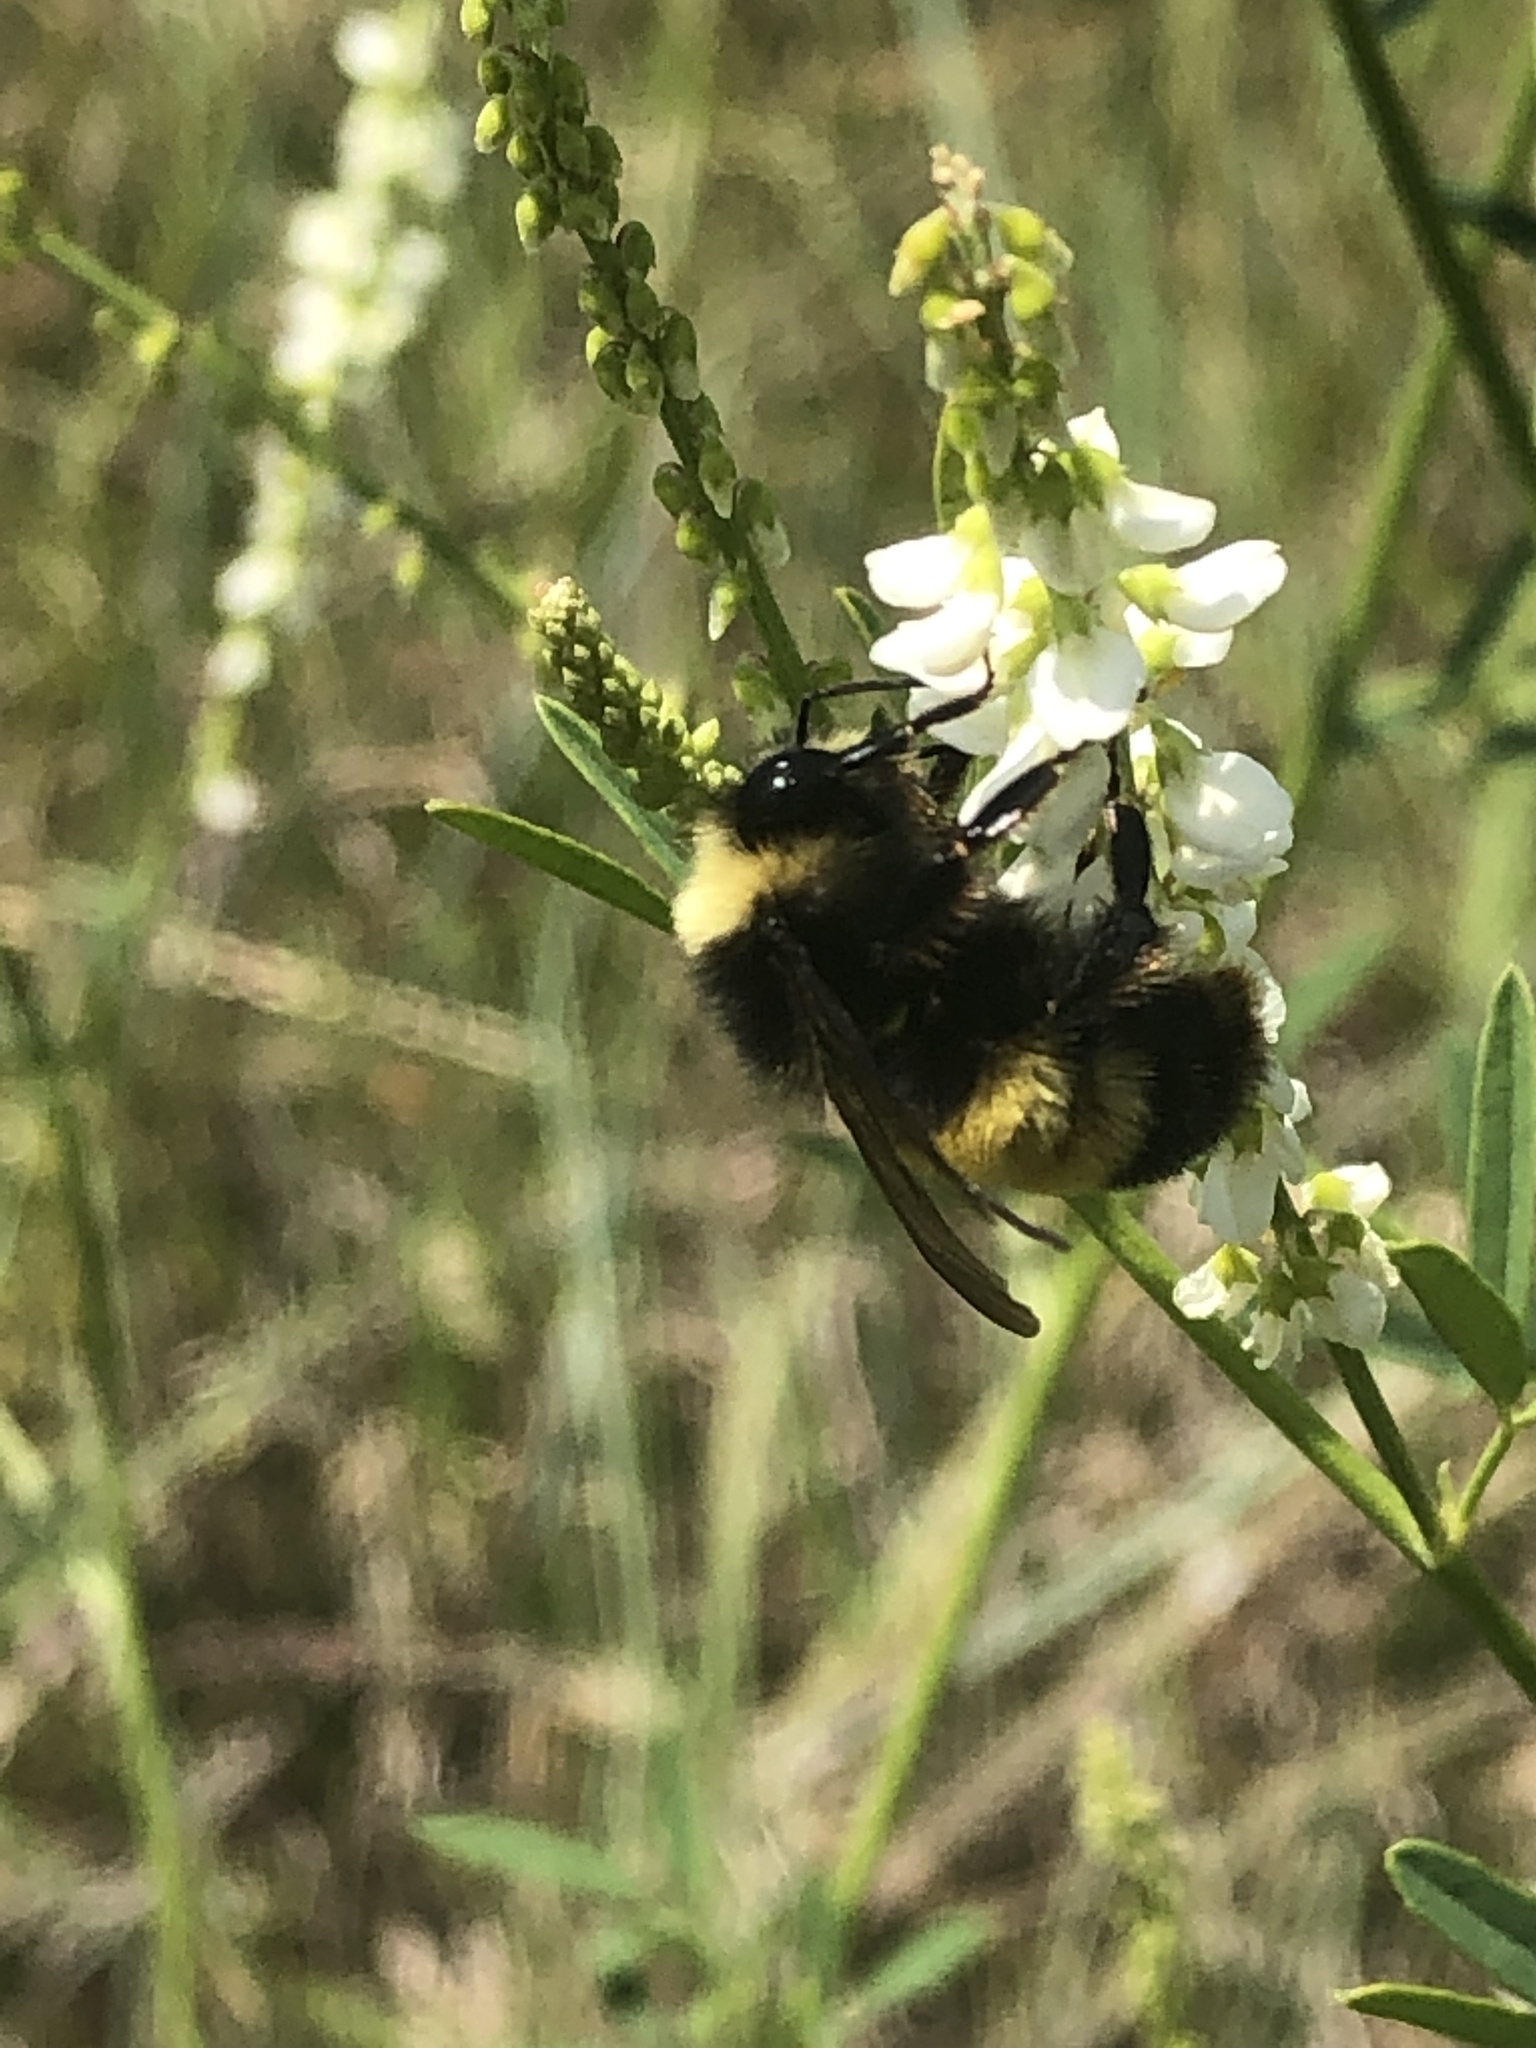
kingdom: Animalia
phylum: Arthropoda
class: Insecta
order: Hymenoptera
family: Apidae
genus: Bombus
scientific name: Bombus terricola
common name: Yellow-banded bumble bee
